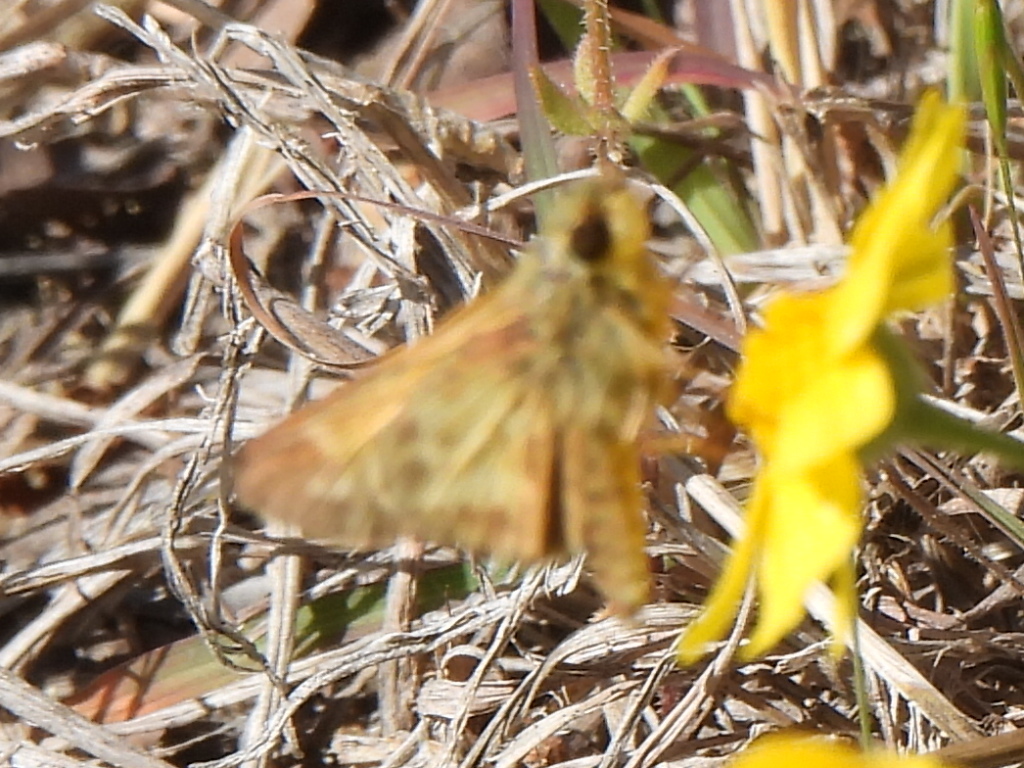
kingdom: Animalia
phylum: Arthropoda
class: Insecta
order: Lepidoptera
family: Hesperiidae
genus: Atalopedes
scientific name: Atalopedes
